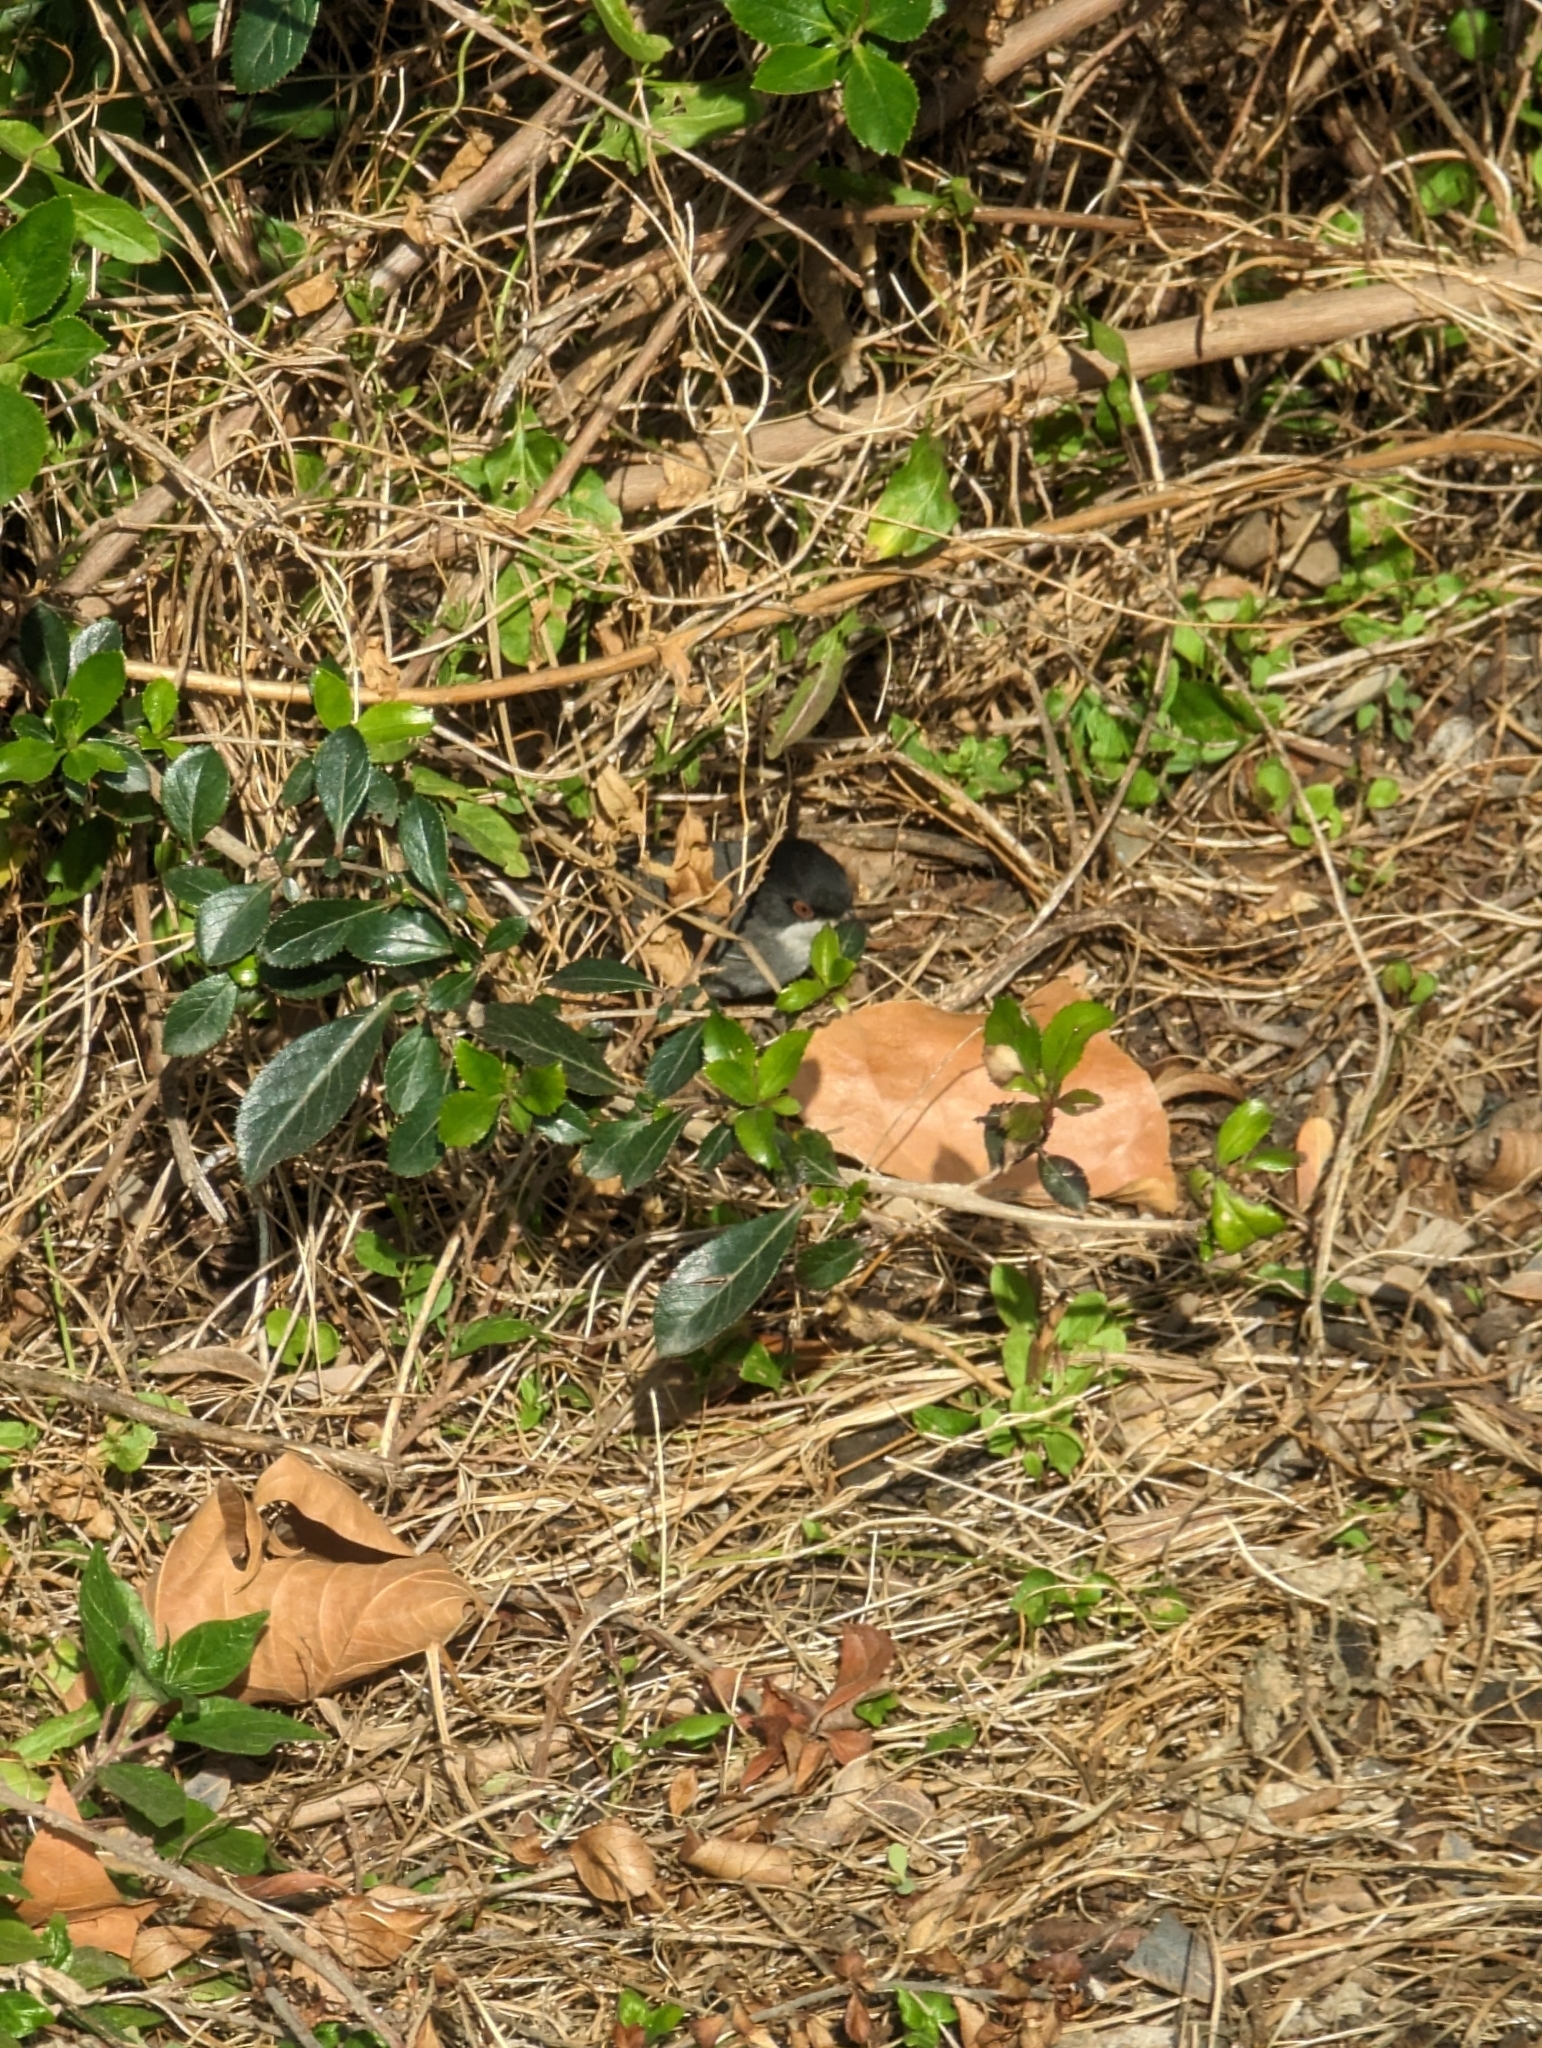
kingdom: Animalia
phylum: Chordata
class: Aves
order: Passeriformes
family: Sylviidae
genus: Curruca
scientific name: Curruca melanocephala
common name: Sardinian warbler
